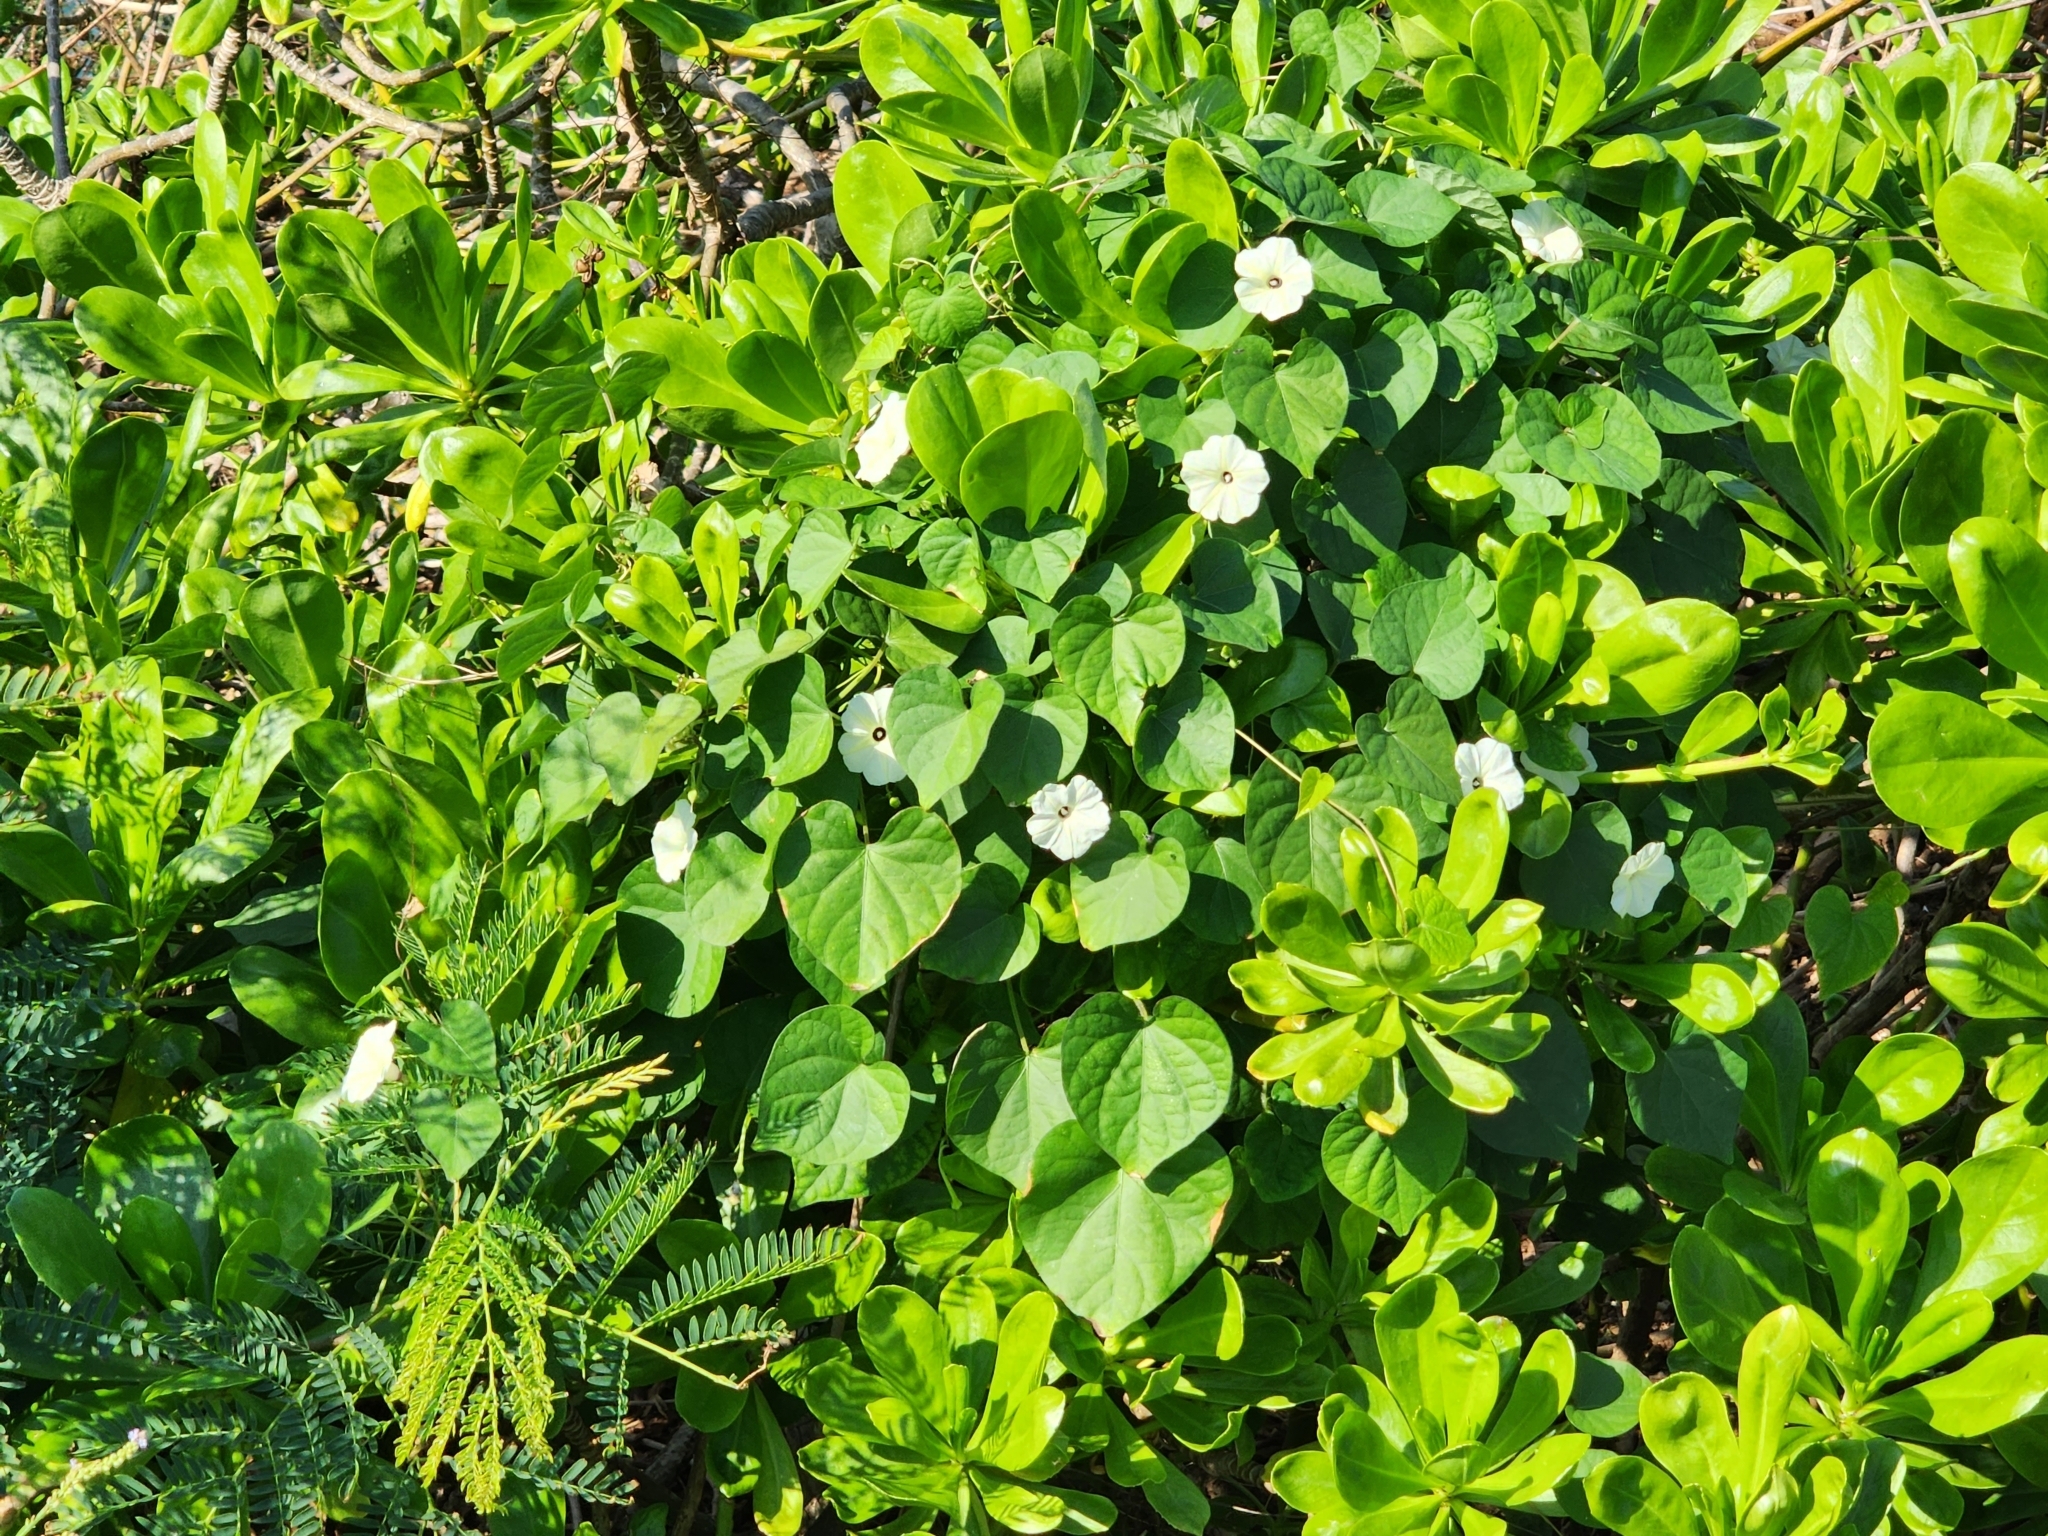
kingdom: Plantae
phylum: Tracheophyta
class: Magnoliopsida
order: Solanales
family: Convolvulaceae
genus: Ipomoea
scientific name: Ipomoea obscura
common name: Obscure morning-glory
